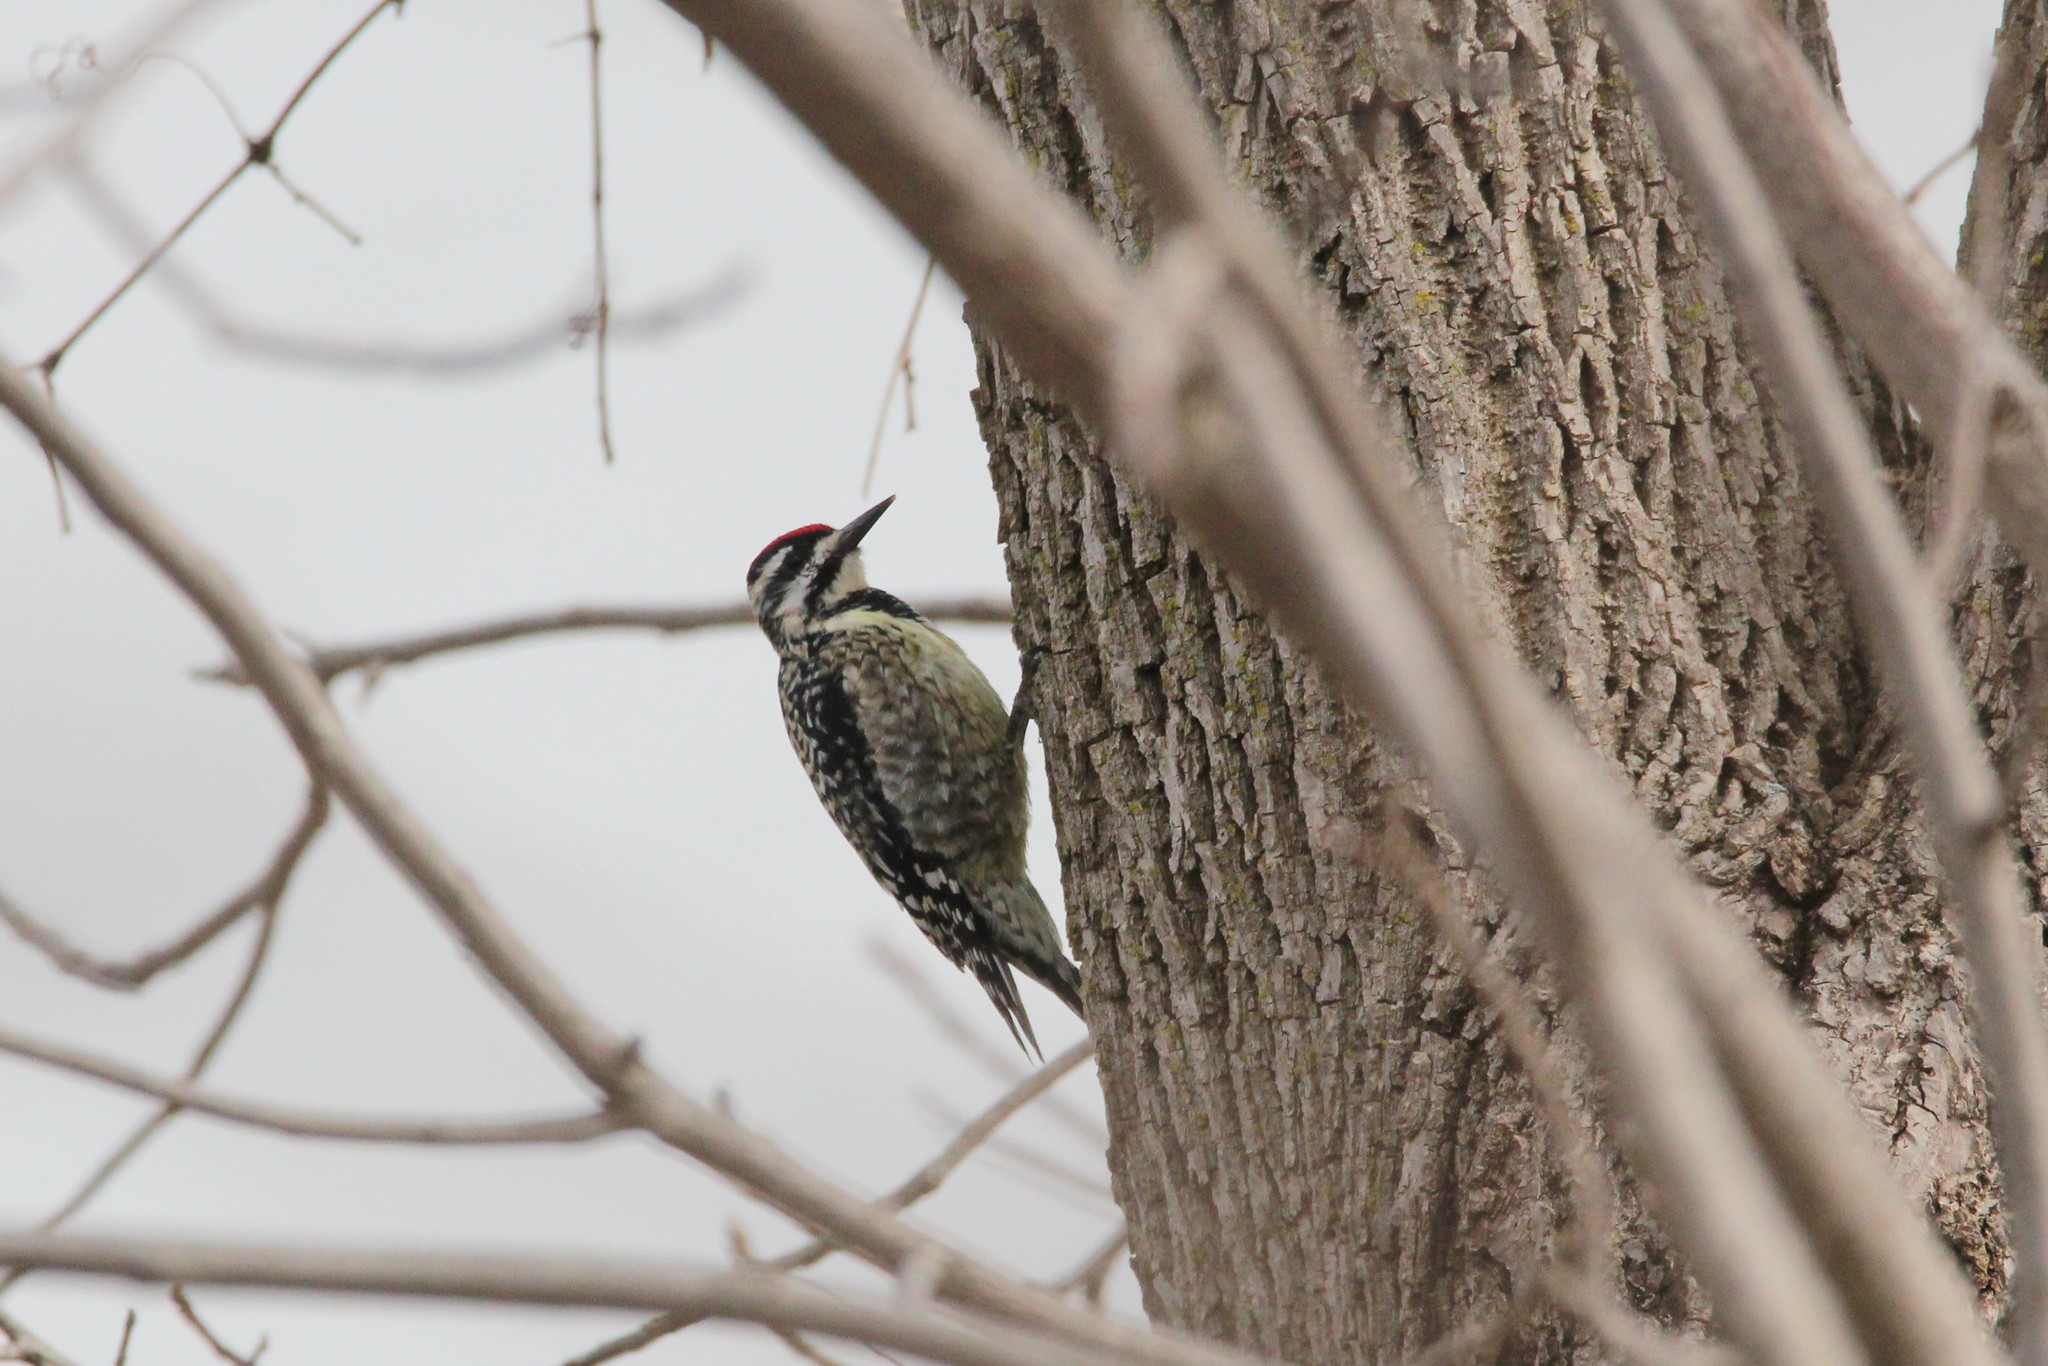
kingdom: Animalia
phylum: Chordata
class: Aves
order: Piciformes
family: Picidae
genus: Sphyrapicus
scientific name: Sphyrapicus varius
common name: Yellow-bellied sapsucker
